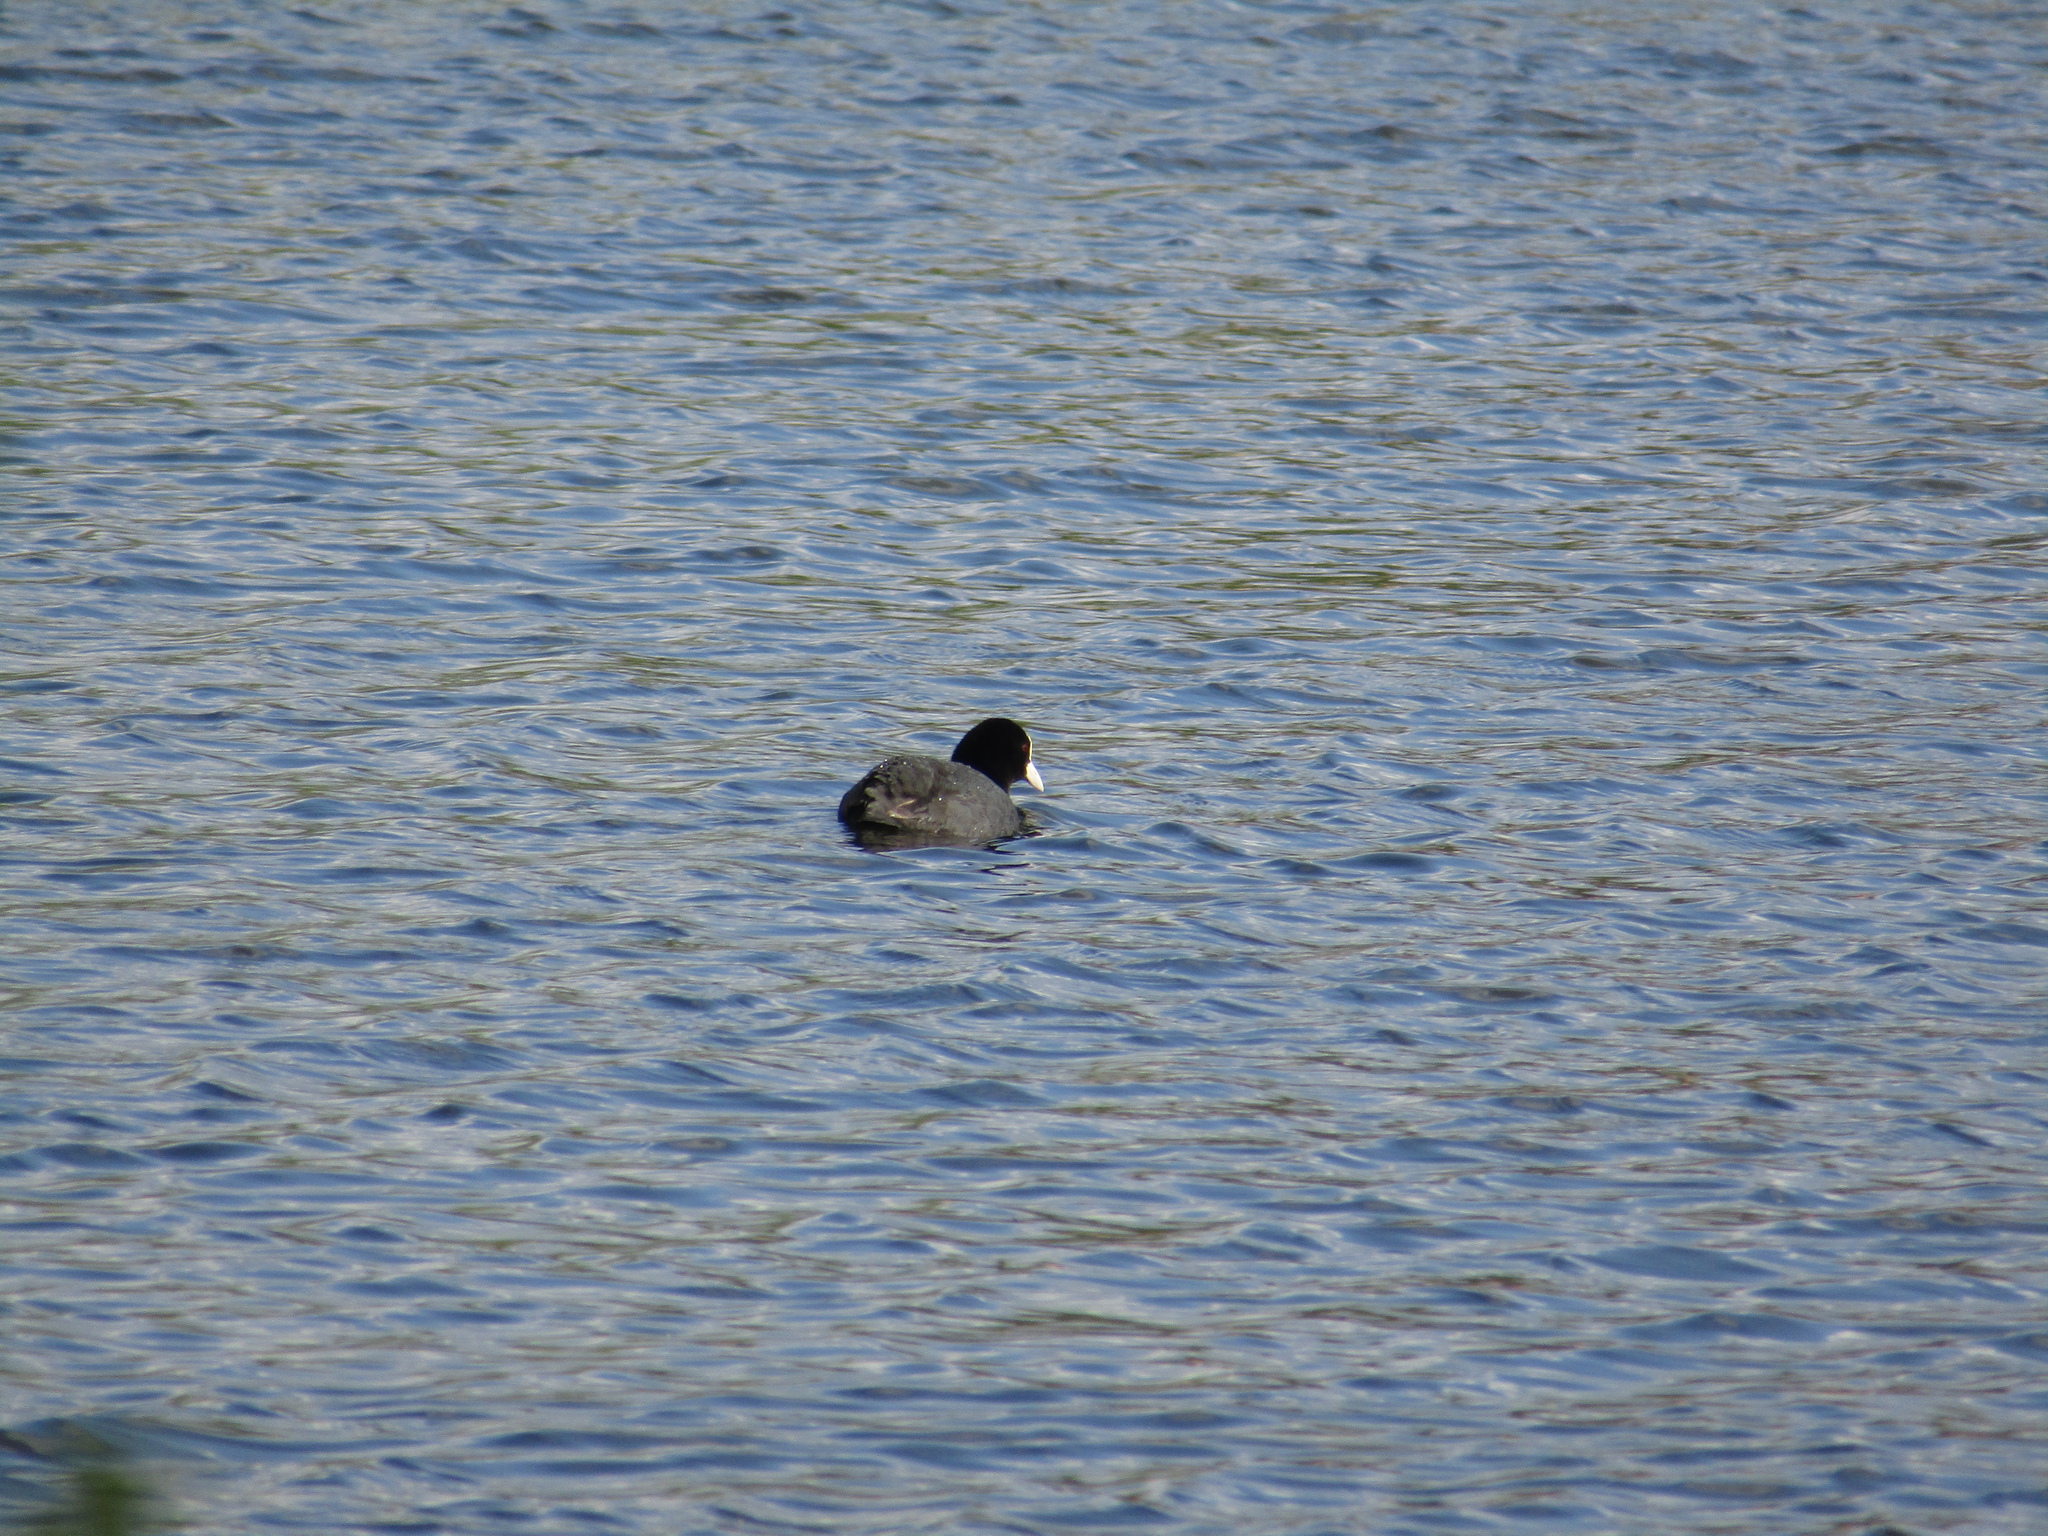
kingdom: Animalia
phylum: Chordata
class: Aves
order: Gruiformes
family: Rallidae
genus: Fulica
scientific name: Fulica atra
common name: Eurasian coot
